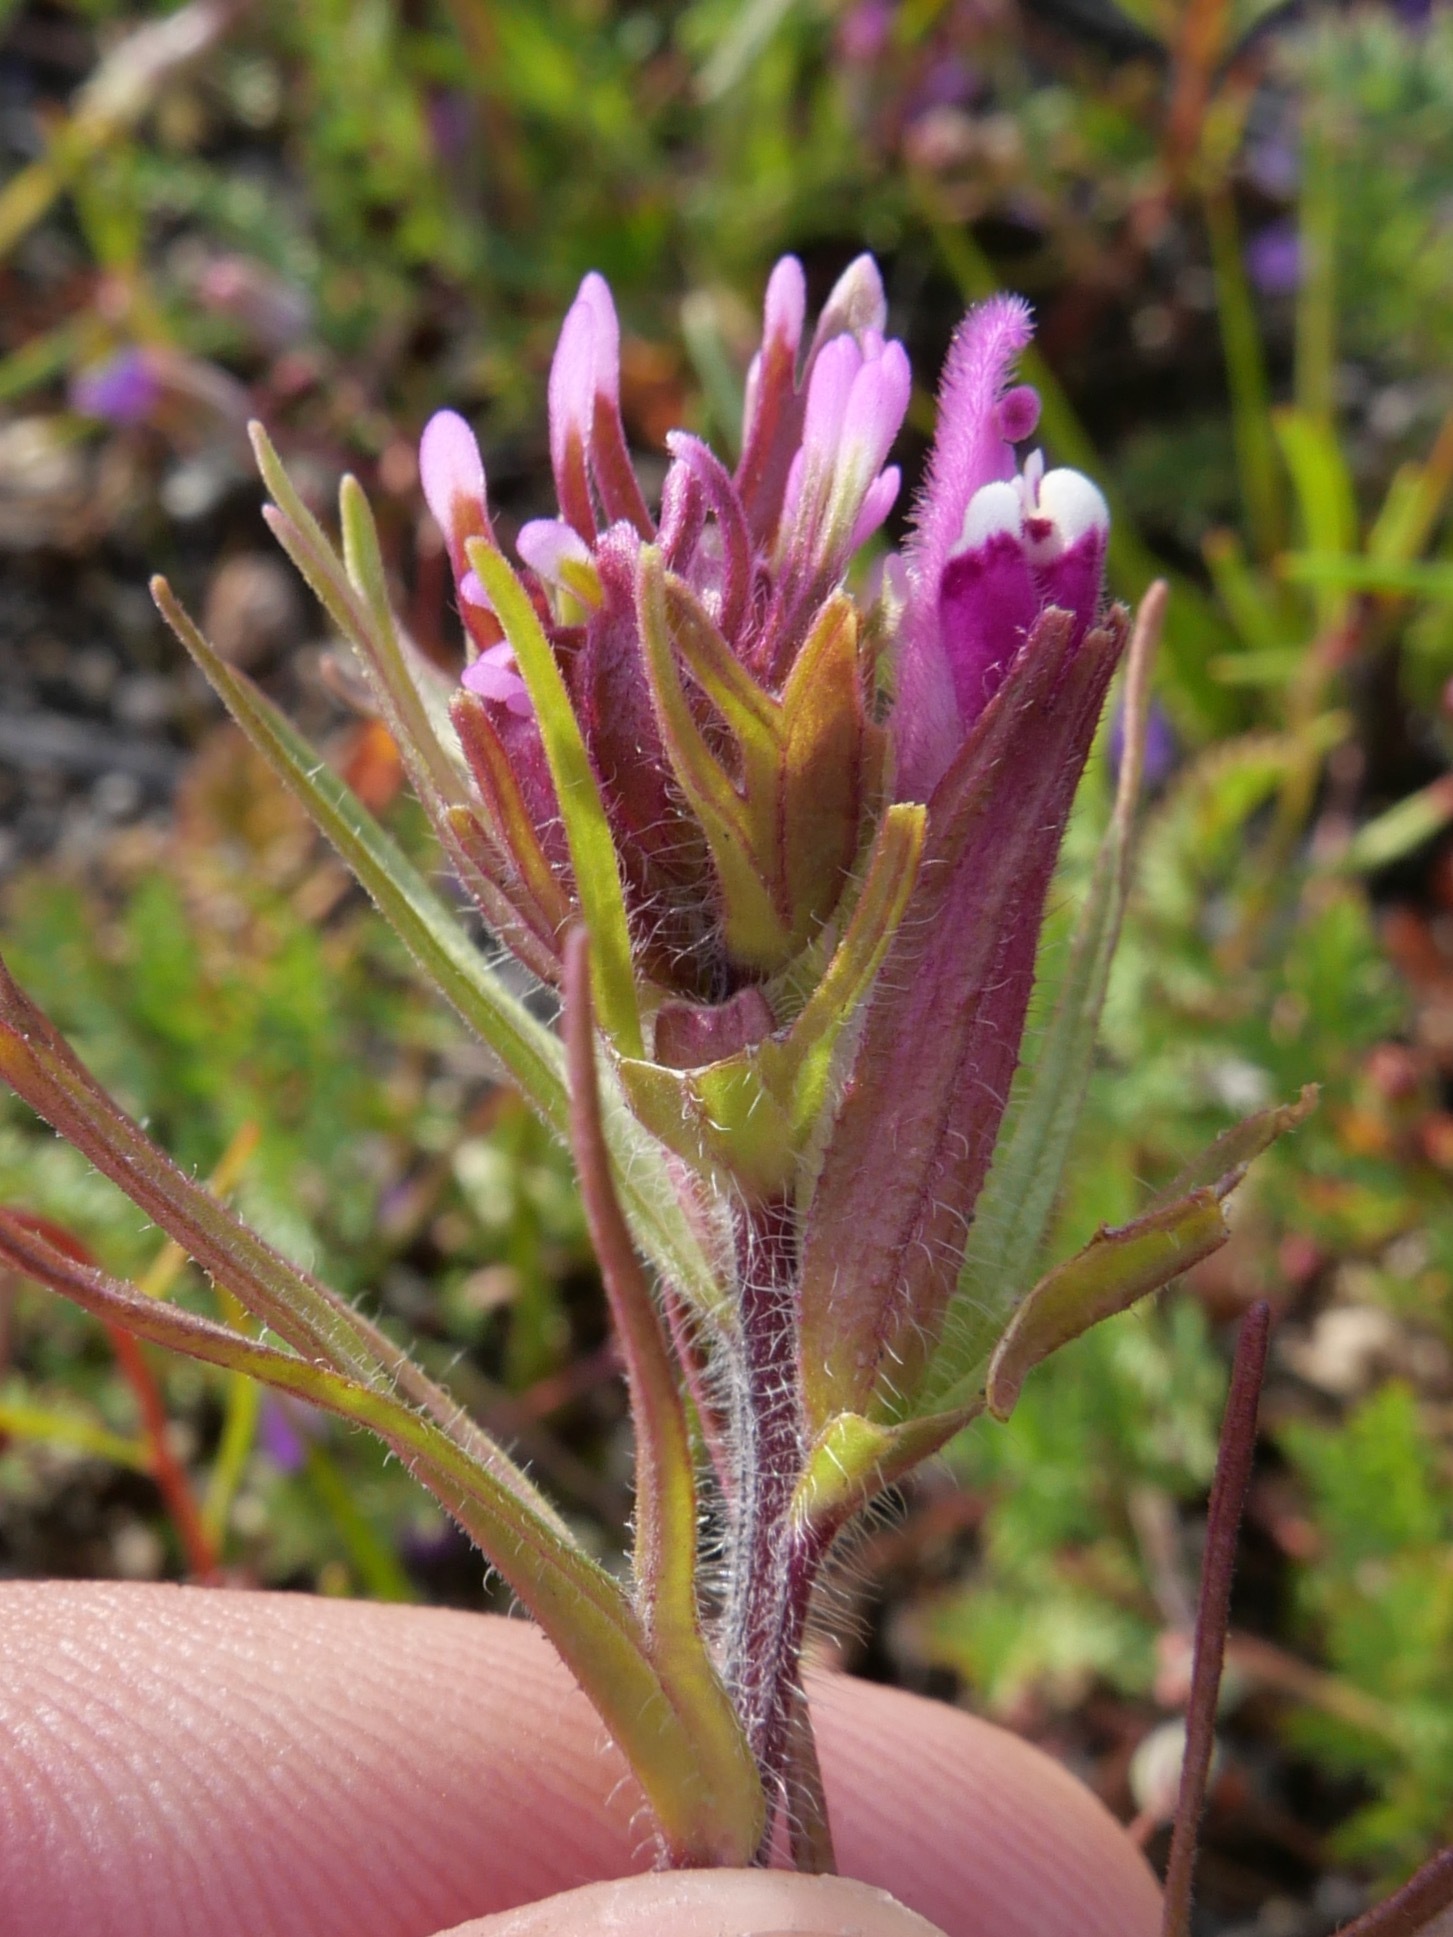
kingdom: Plantae
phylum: Tracheophyta
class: Magnoliopsida
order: Lamiales
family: Orobanchaceae
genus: Castilleja
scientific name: Castilleja exserta
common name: Purple owl-clover
